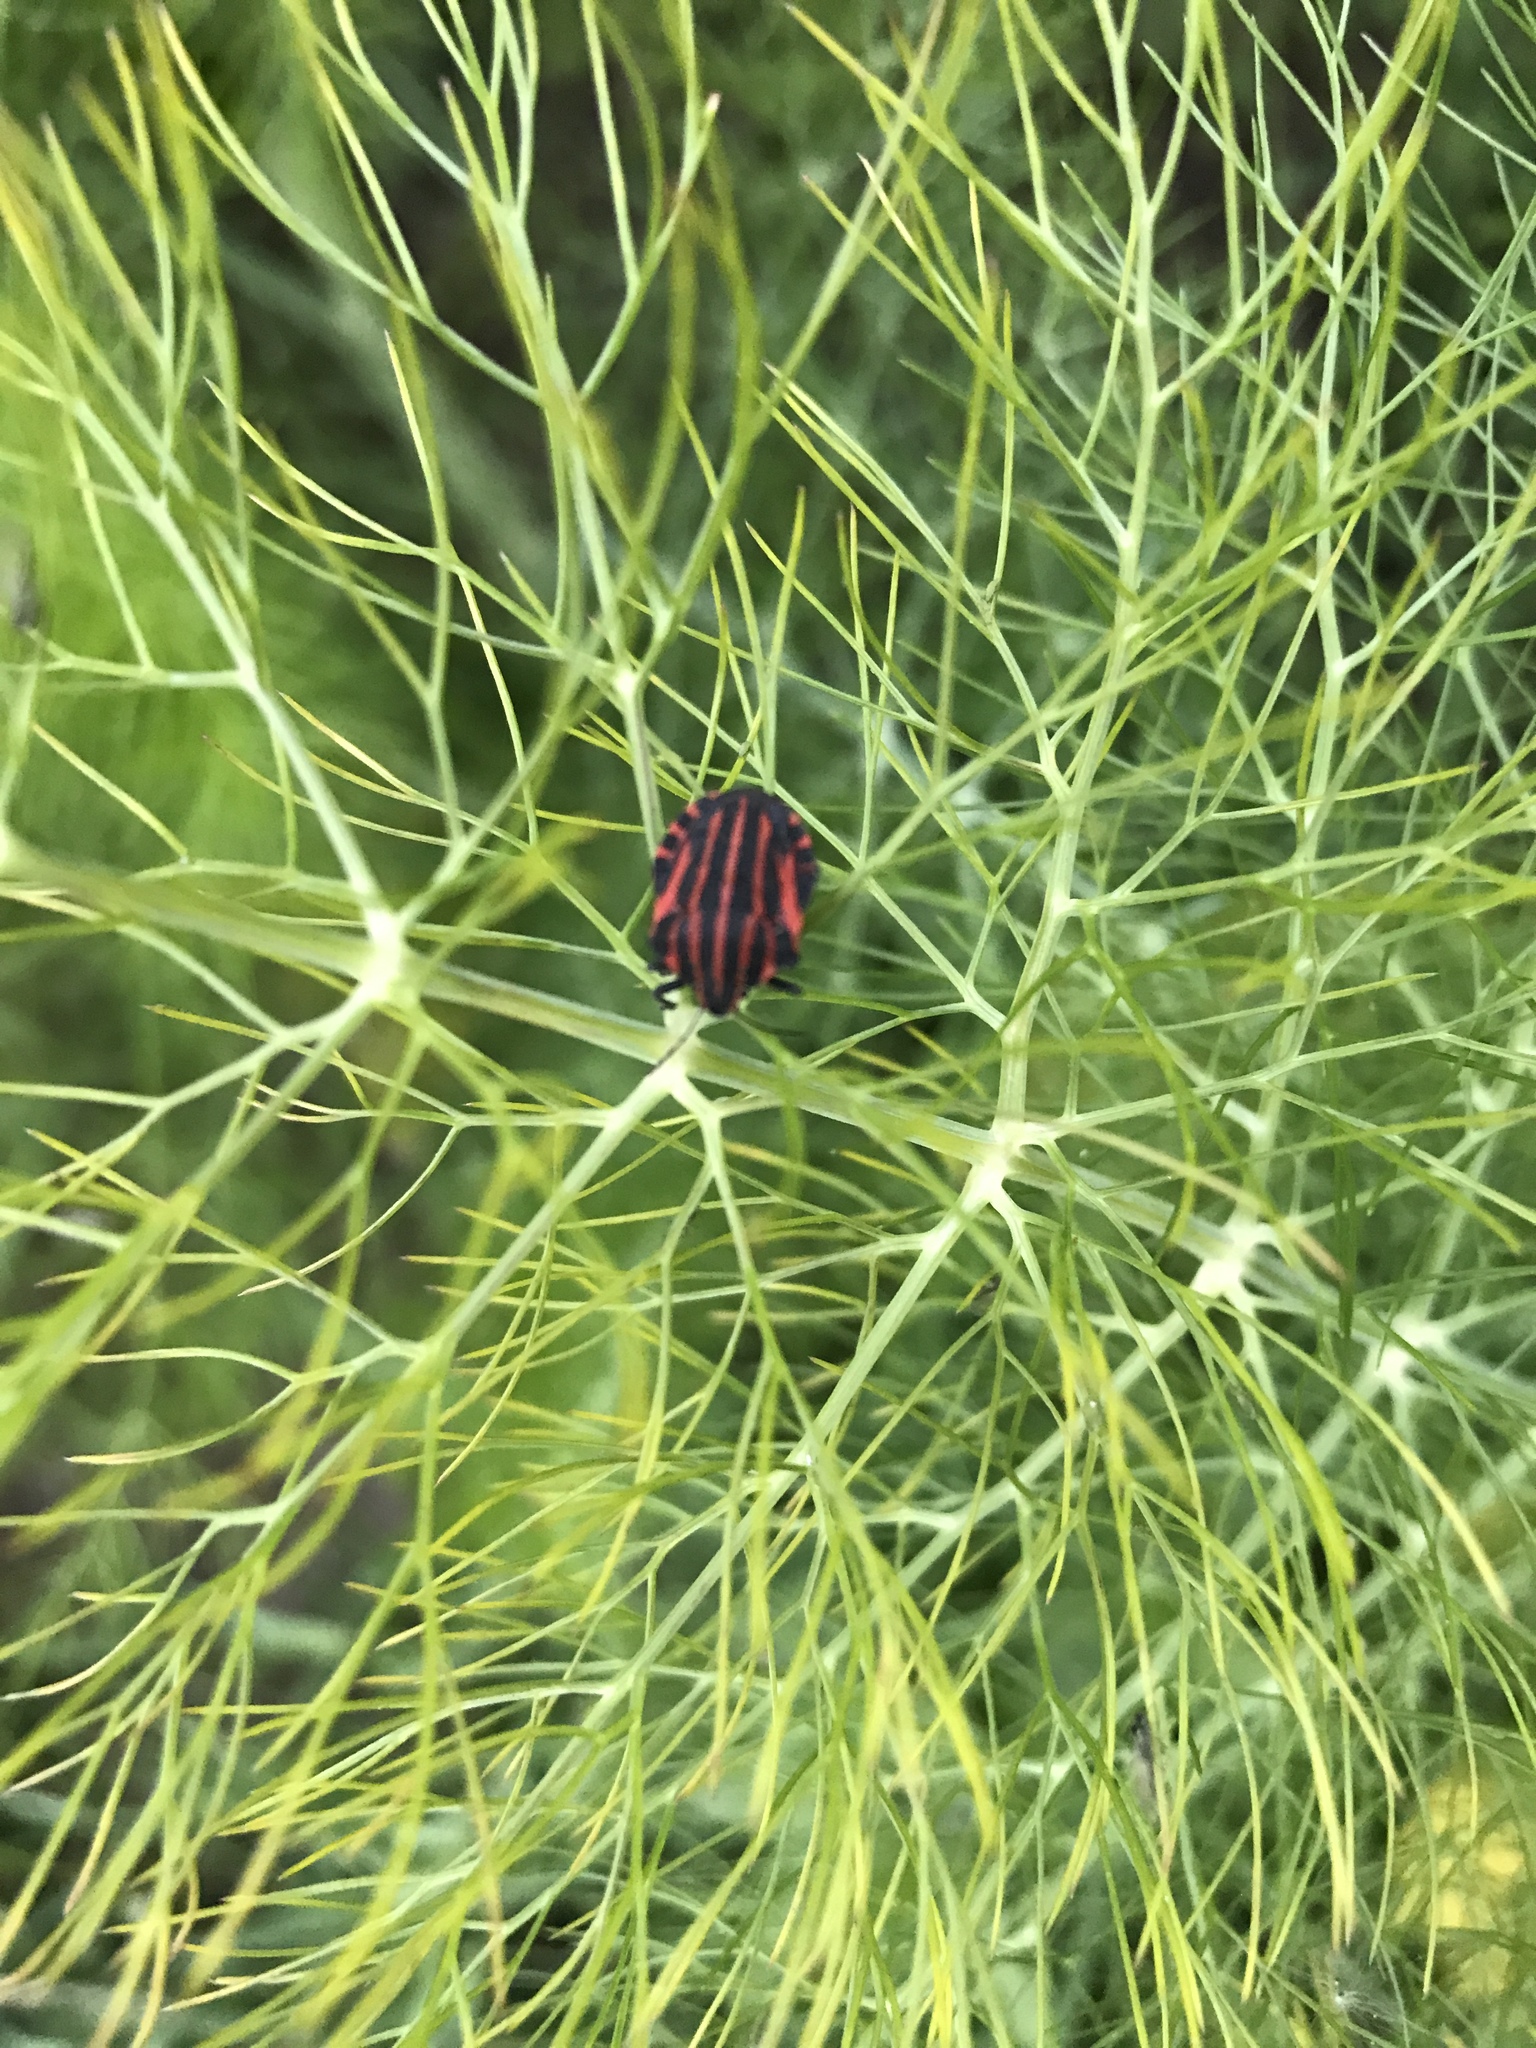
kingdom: Animalia
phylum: Arthropoda
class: Insecta
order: Hemiptera
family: Pentatomidae
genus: Graphosoma
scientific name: Graphosoma italicum
